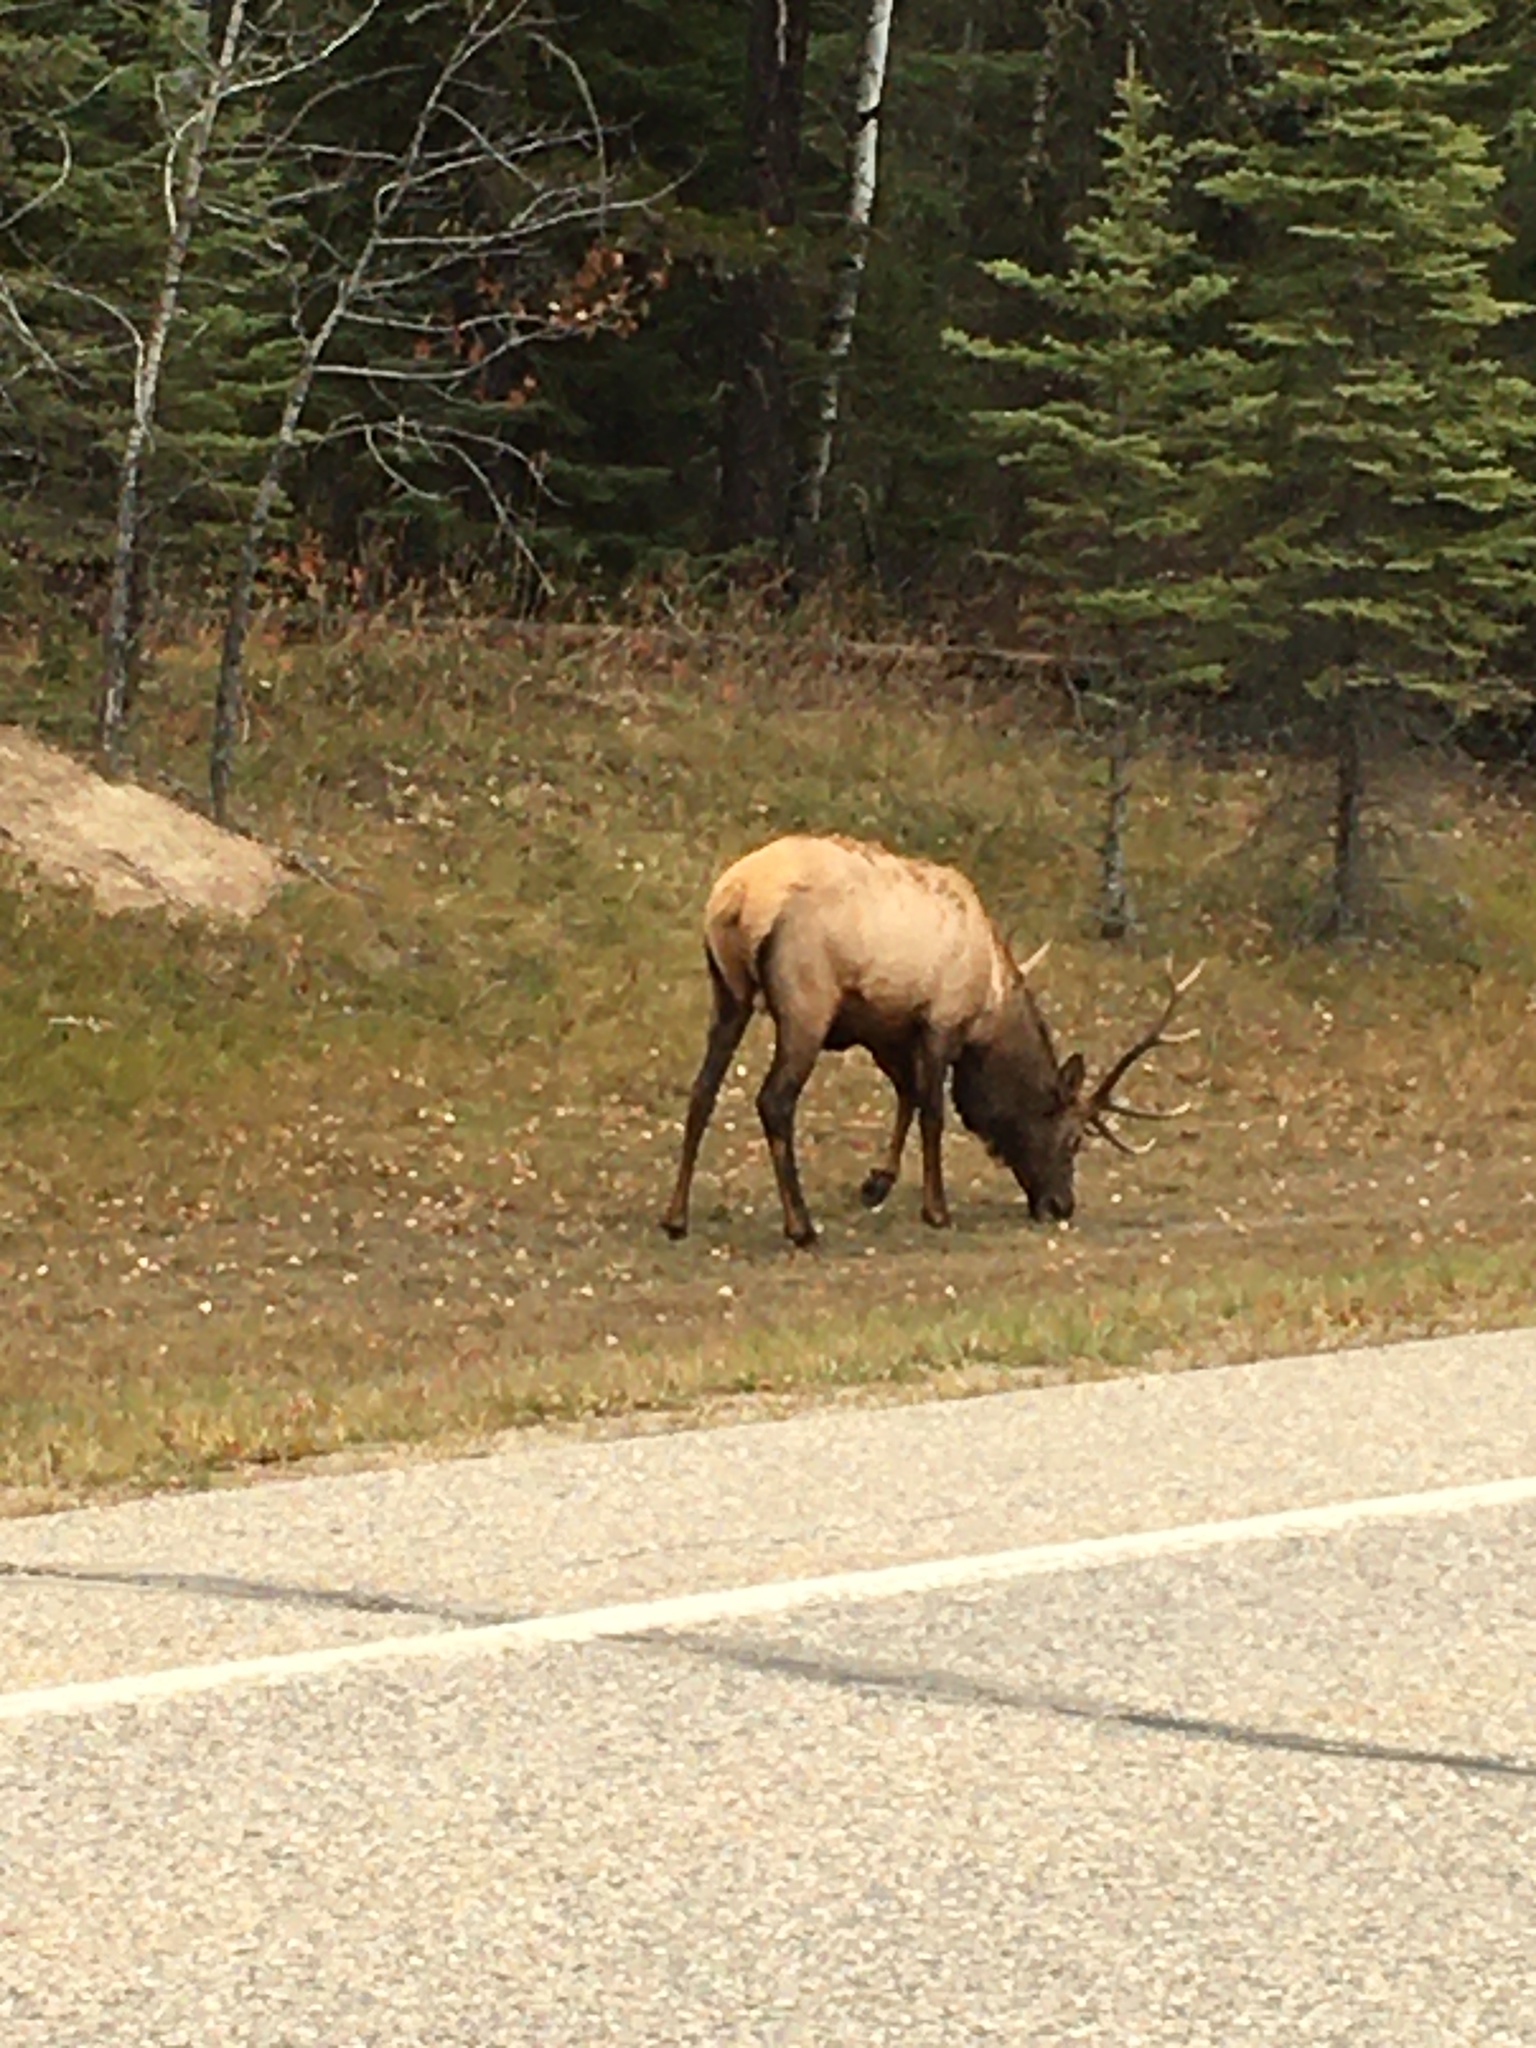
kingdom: Animalia
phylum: Chordata
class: Mammalia
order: Artiodactyla
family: Cervidae
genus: Cervus
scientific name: Cervus elaphus
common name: Red deer
